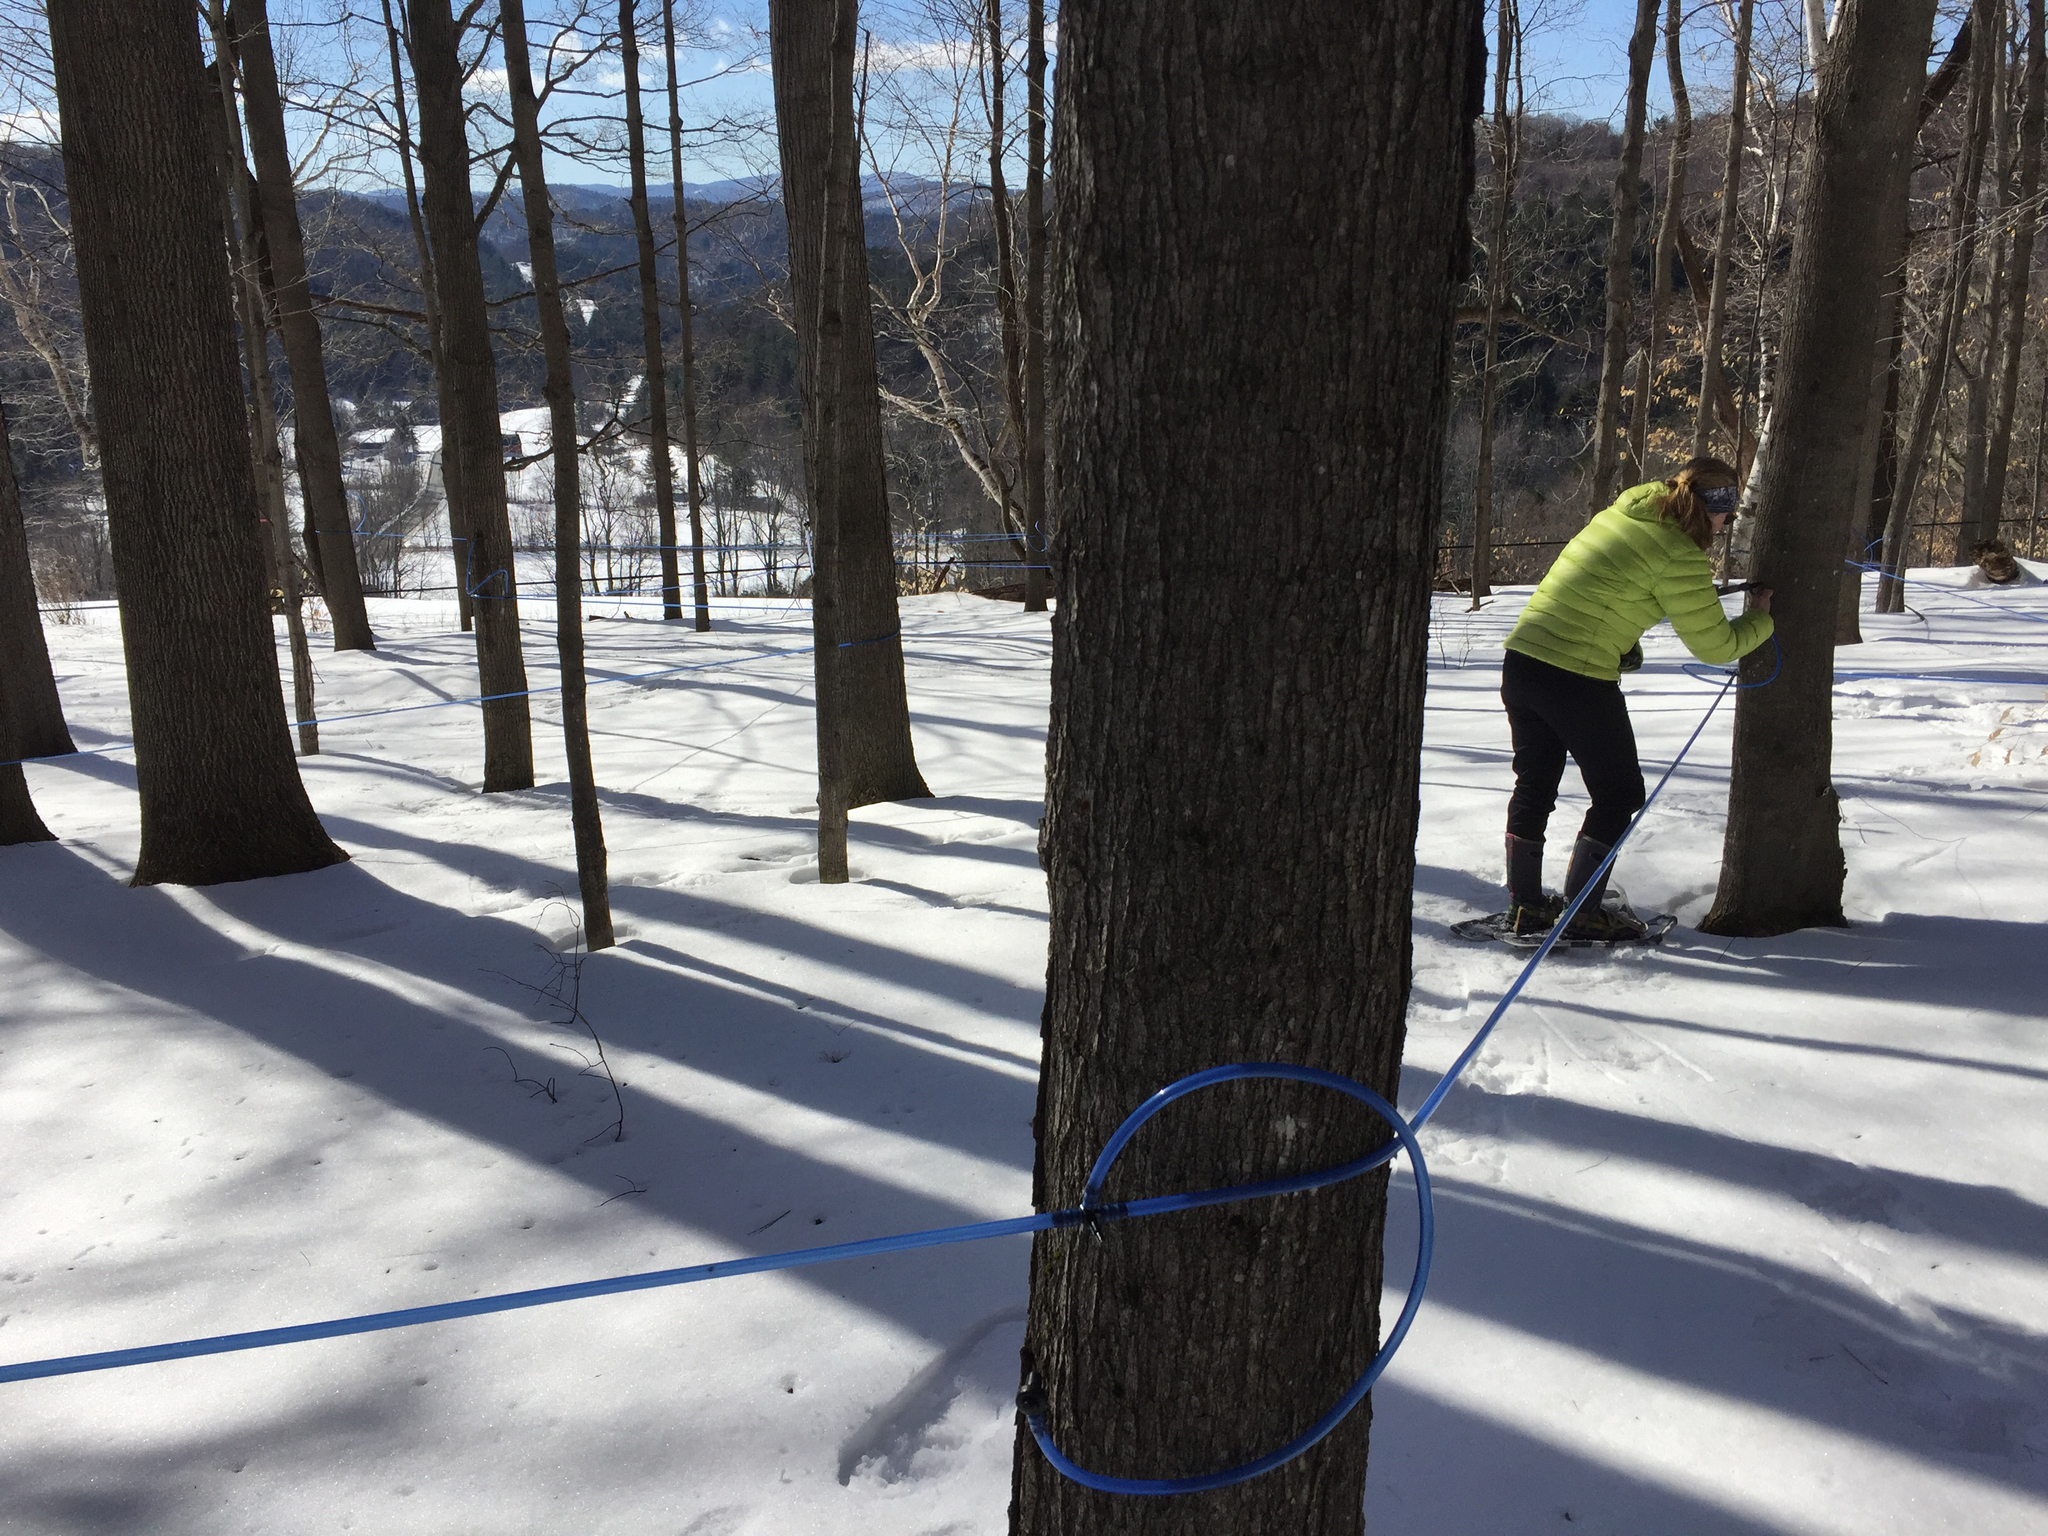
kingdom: Plantae
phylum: Tracheophyta
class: Magnoliopsida
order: Sapindales
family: Sapindaceae
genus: Acer
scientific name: Acer saccharum
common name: Sugar maple
